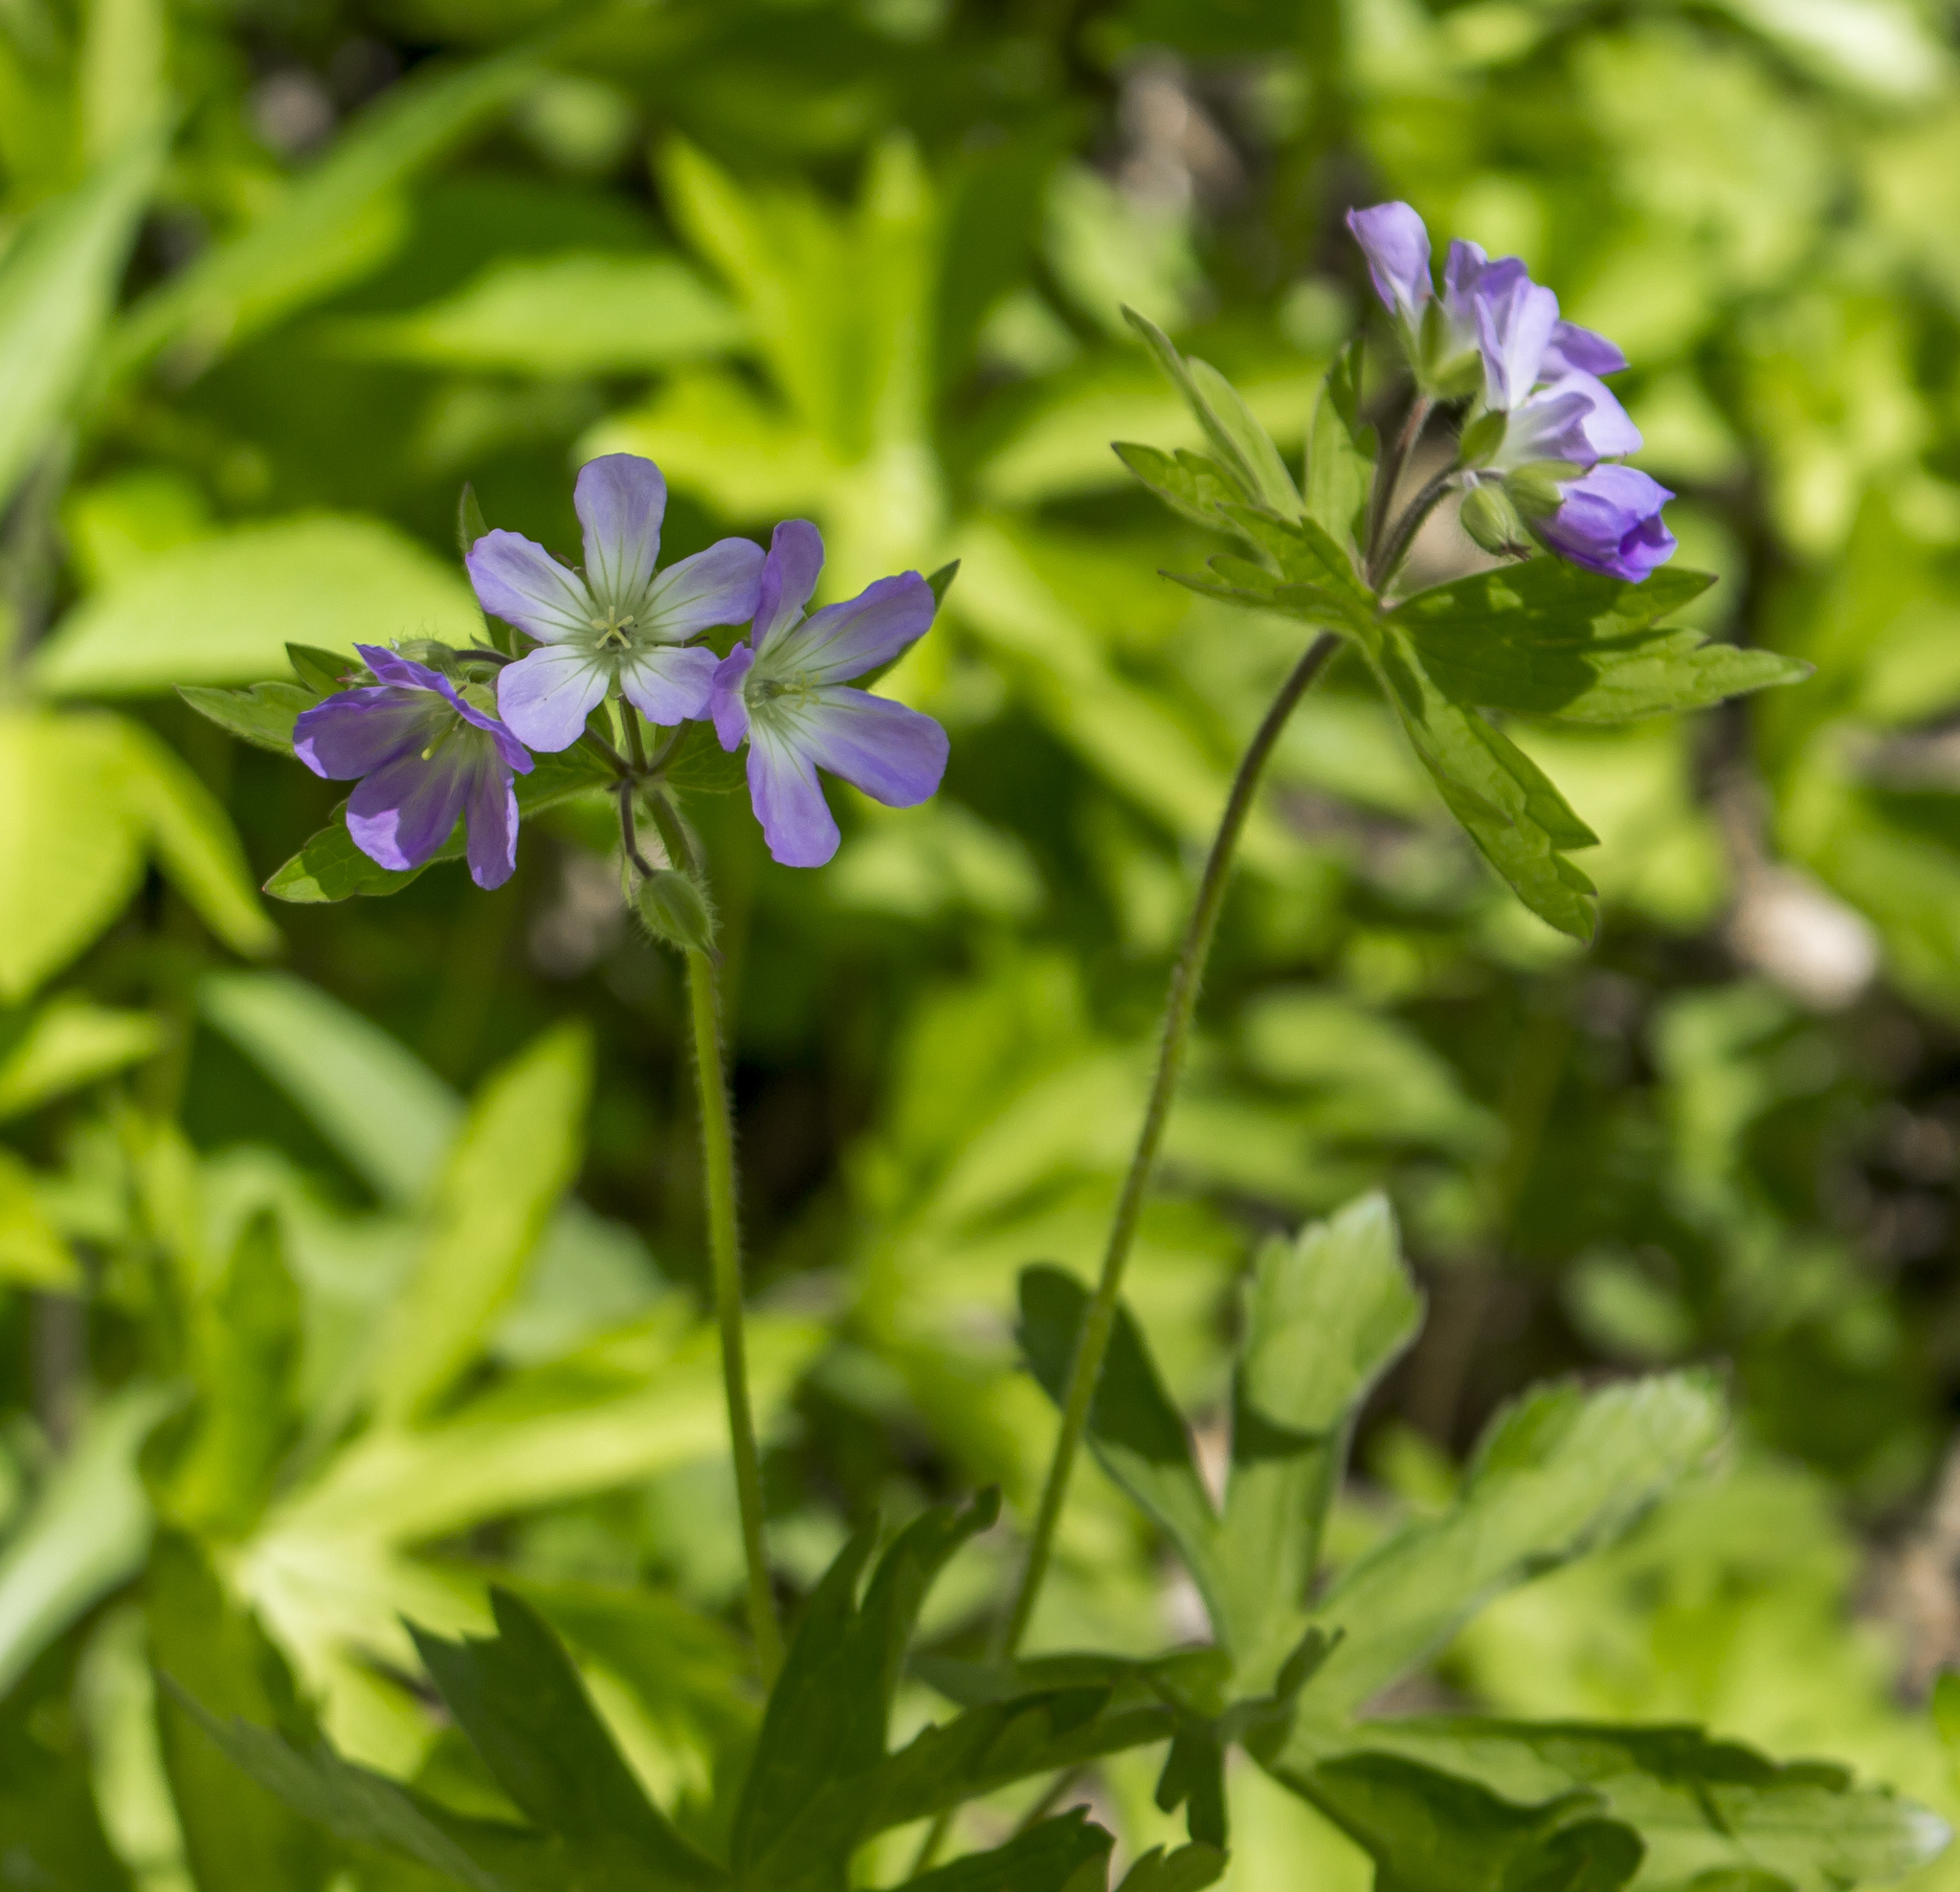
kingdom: Plantae
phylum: Tracheophyta
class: Magnoliopsida
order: Geraniales
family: Geraniaceae
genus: Geranium
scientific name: Geranium maculatum
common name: Spotted geranium
